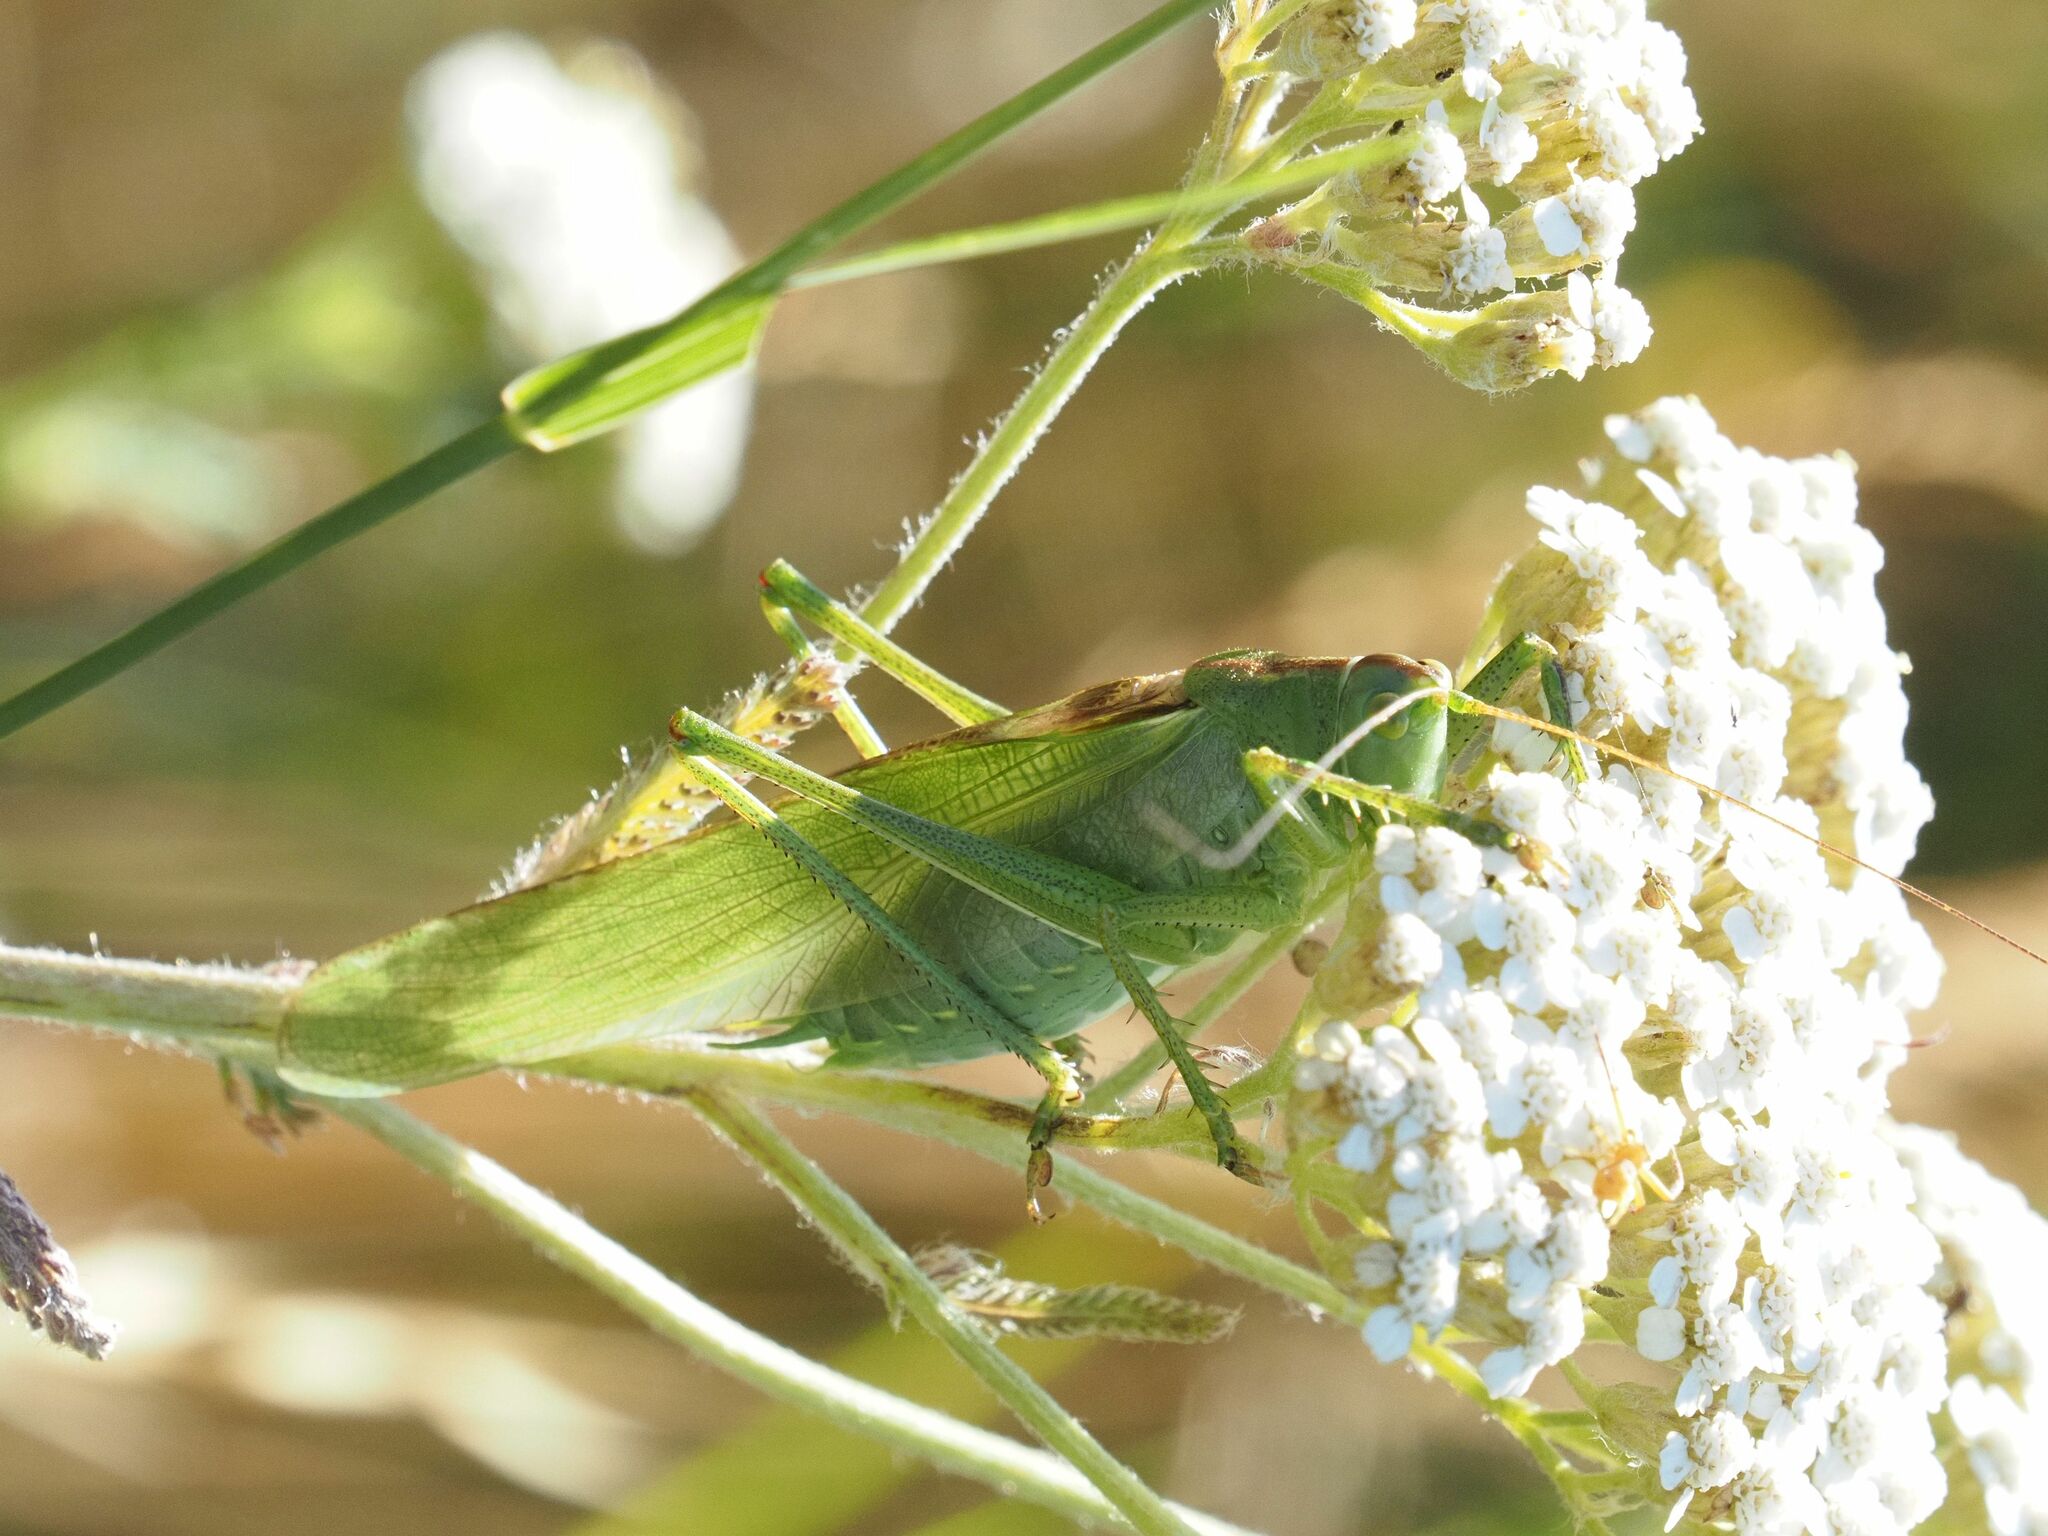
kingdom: Animalia
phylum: Arthropoda
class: Insecta
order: Orthoptera
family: Tettigoniidae
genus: Tettigonia
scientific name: Tettigonia viridissima
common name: Great green bush-cricket
